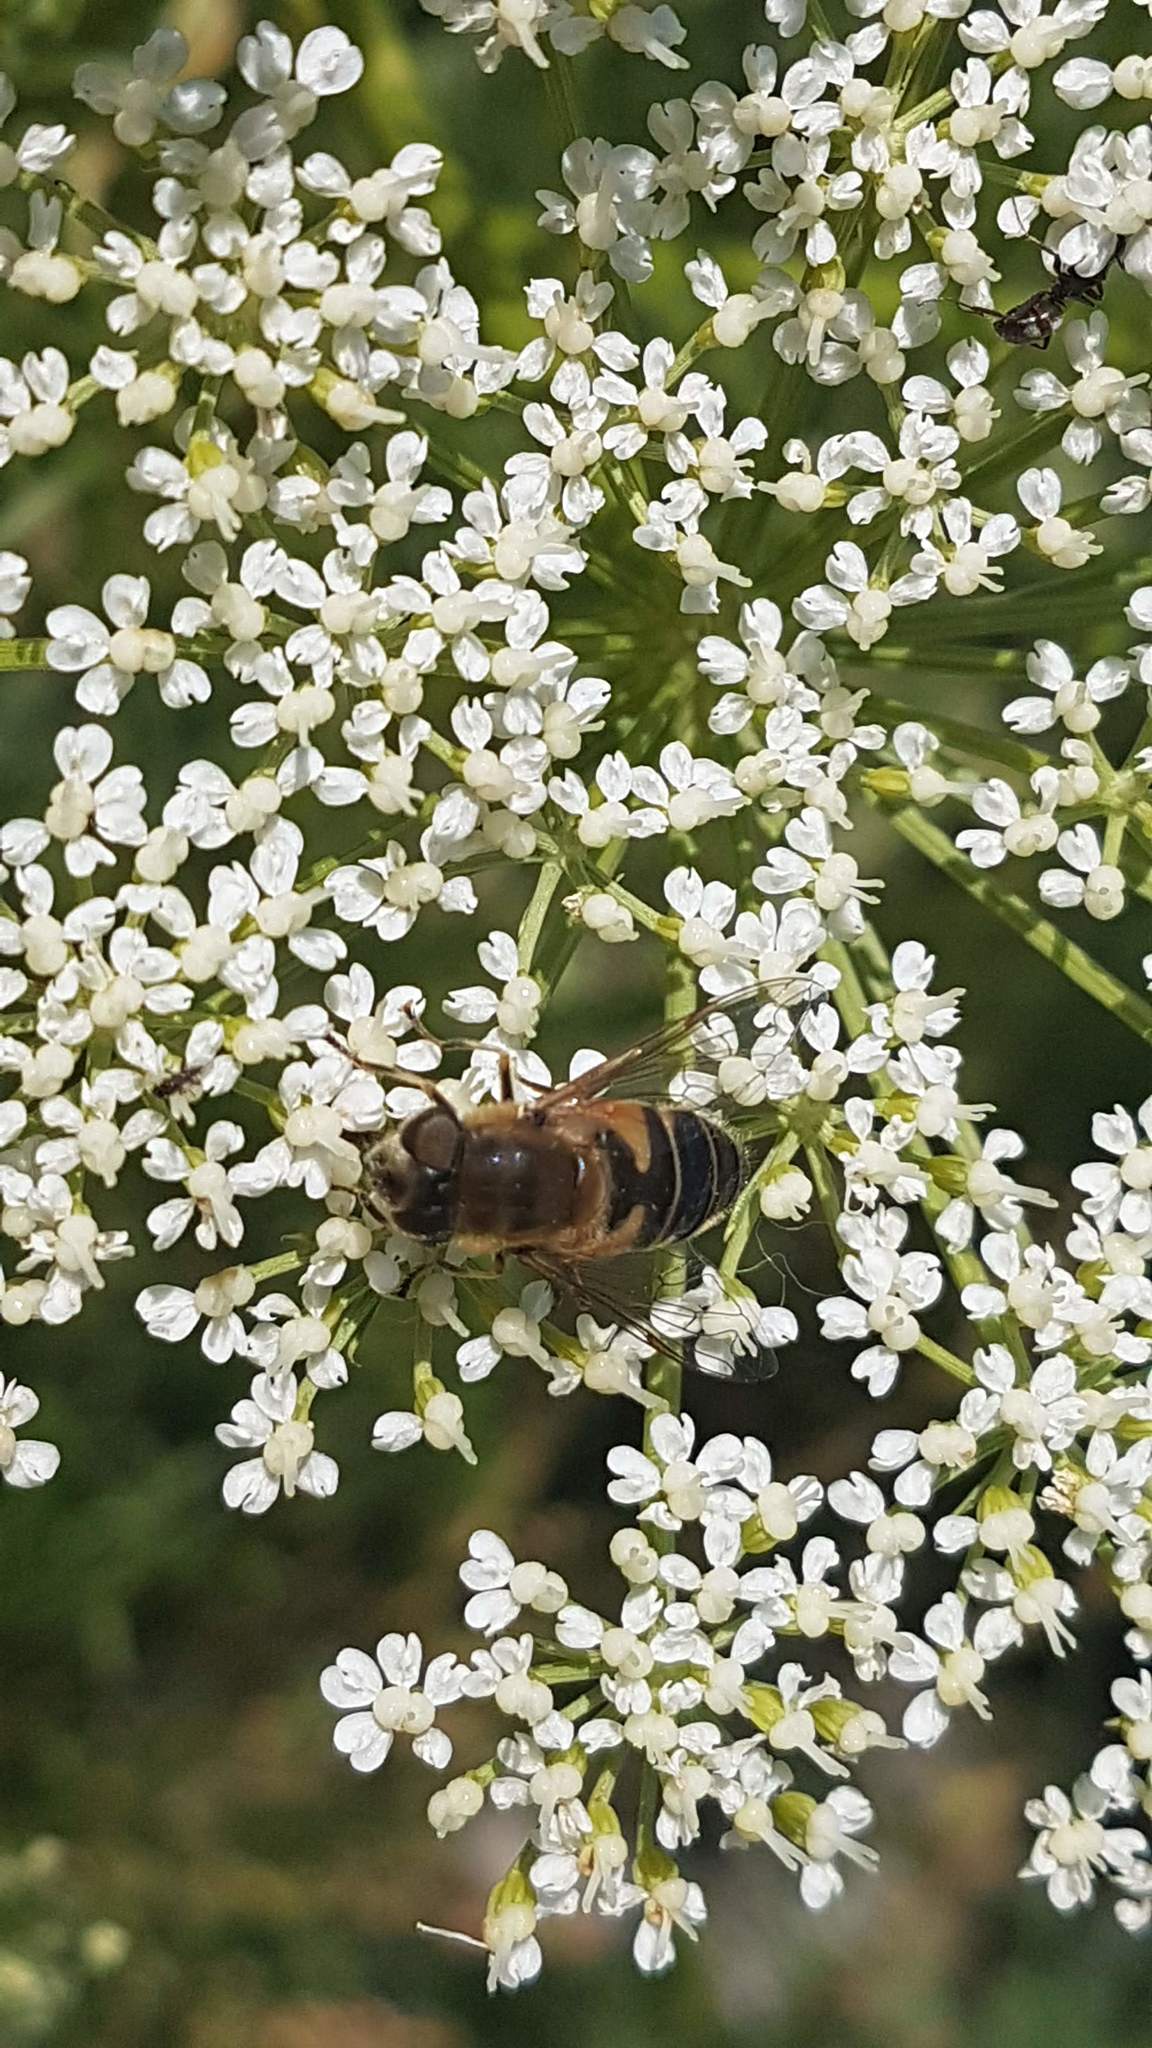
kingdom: Animalia
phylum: Arthropoda
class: Insecta
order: Diptera
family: Syrphidae
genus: Eristalis
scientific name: Eristalis tenax
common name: Drone fly
